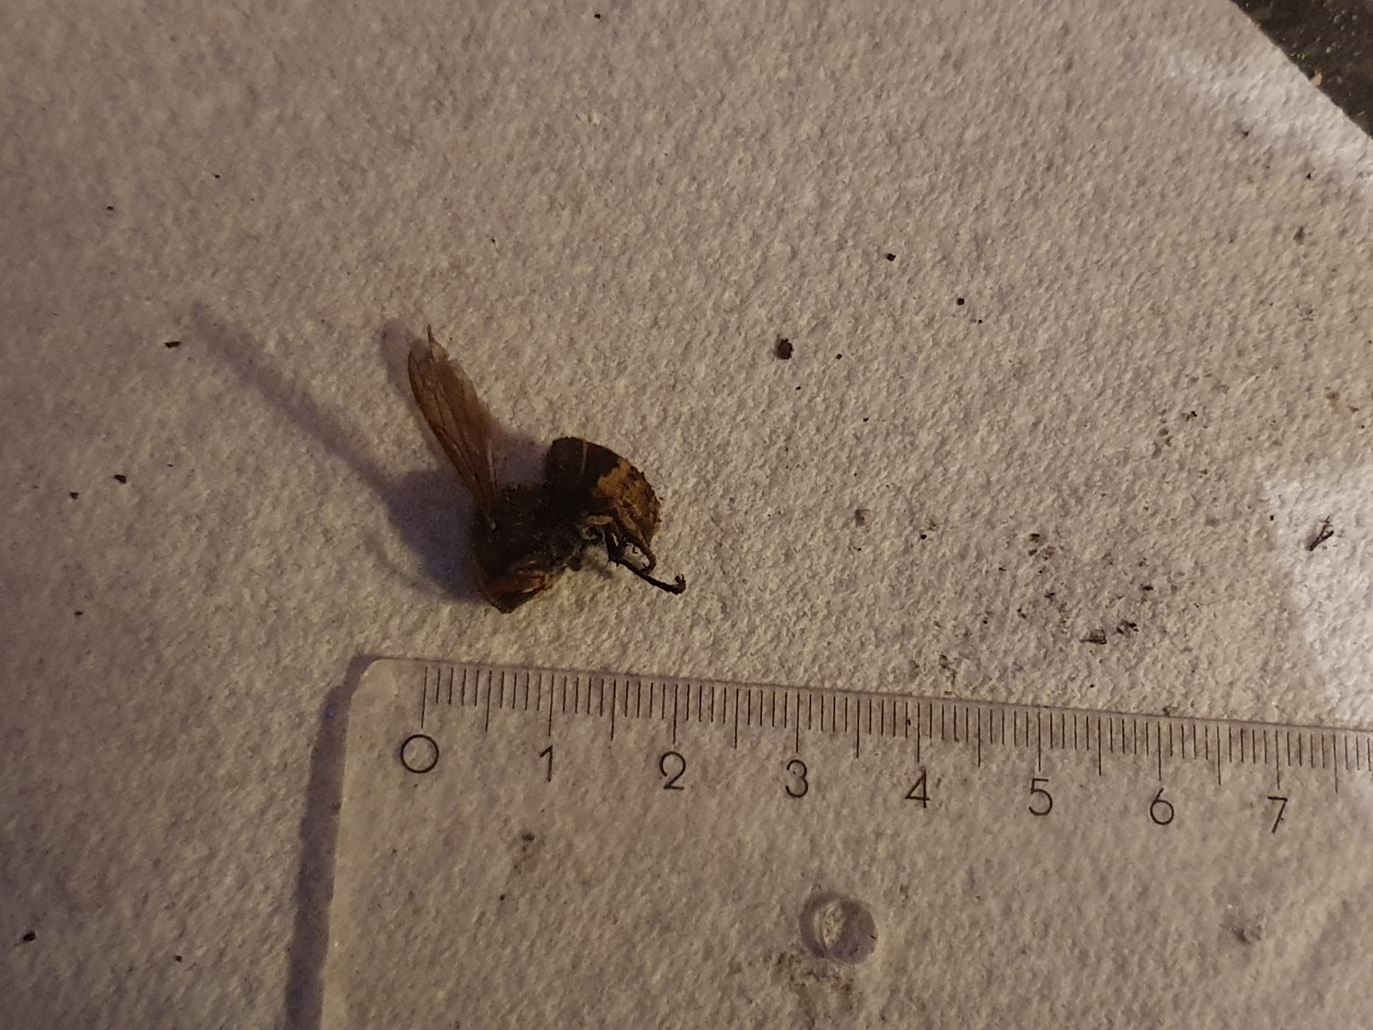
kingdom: Animalia
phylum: Arthropoda
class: Insecta
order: Hymenoptera
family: Vespidae
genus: Vespa
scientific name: Vespa crabro
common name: Hornet
